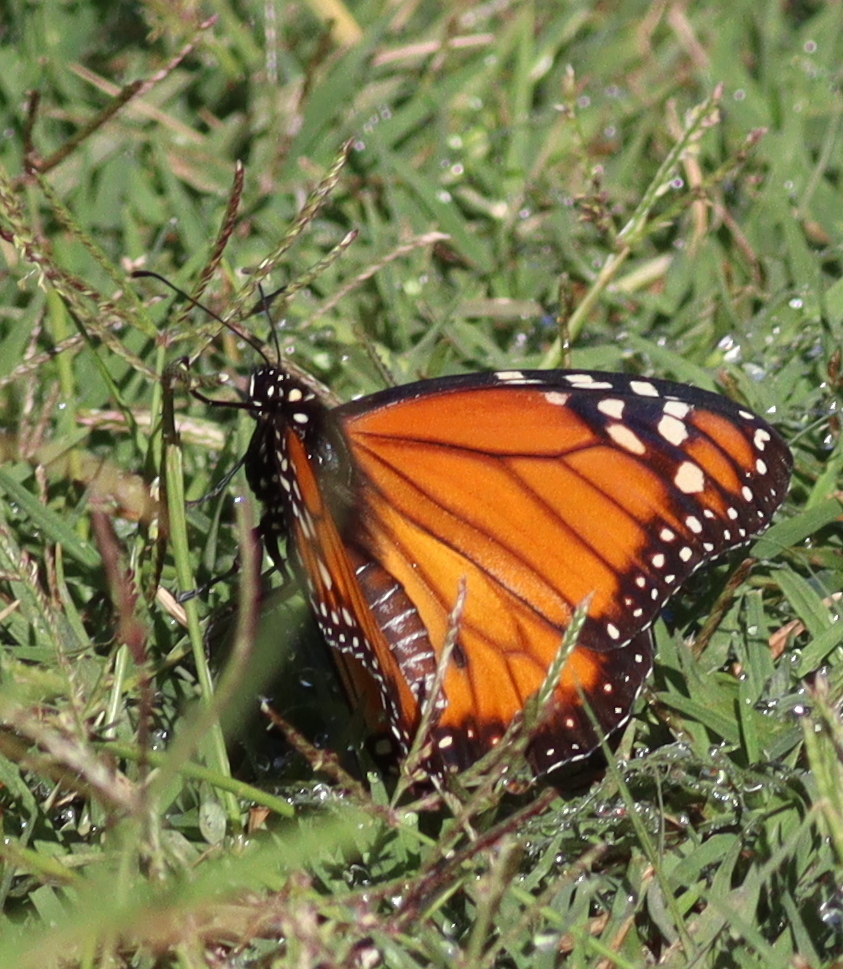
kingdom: Animalia
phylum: Arthropoda
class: Insecta
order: Lepidoptera
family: Nymphalidae
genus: Danaus
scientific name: Danaus erippus
